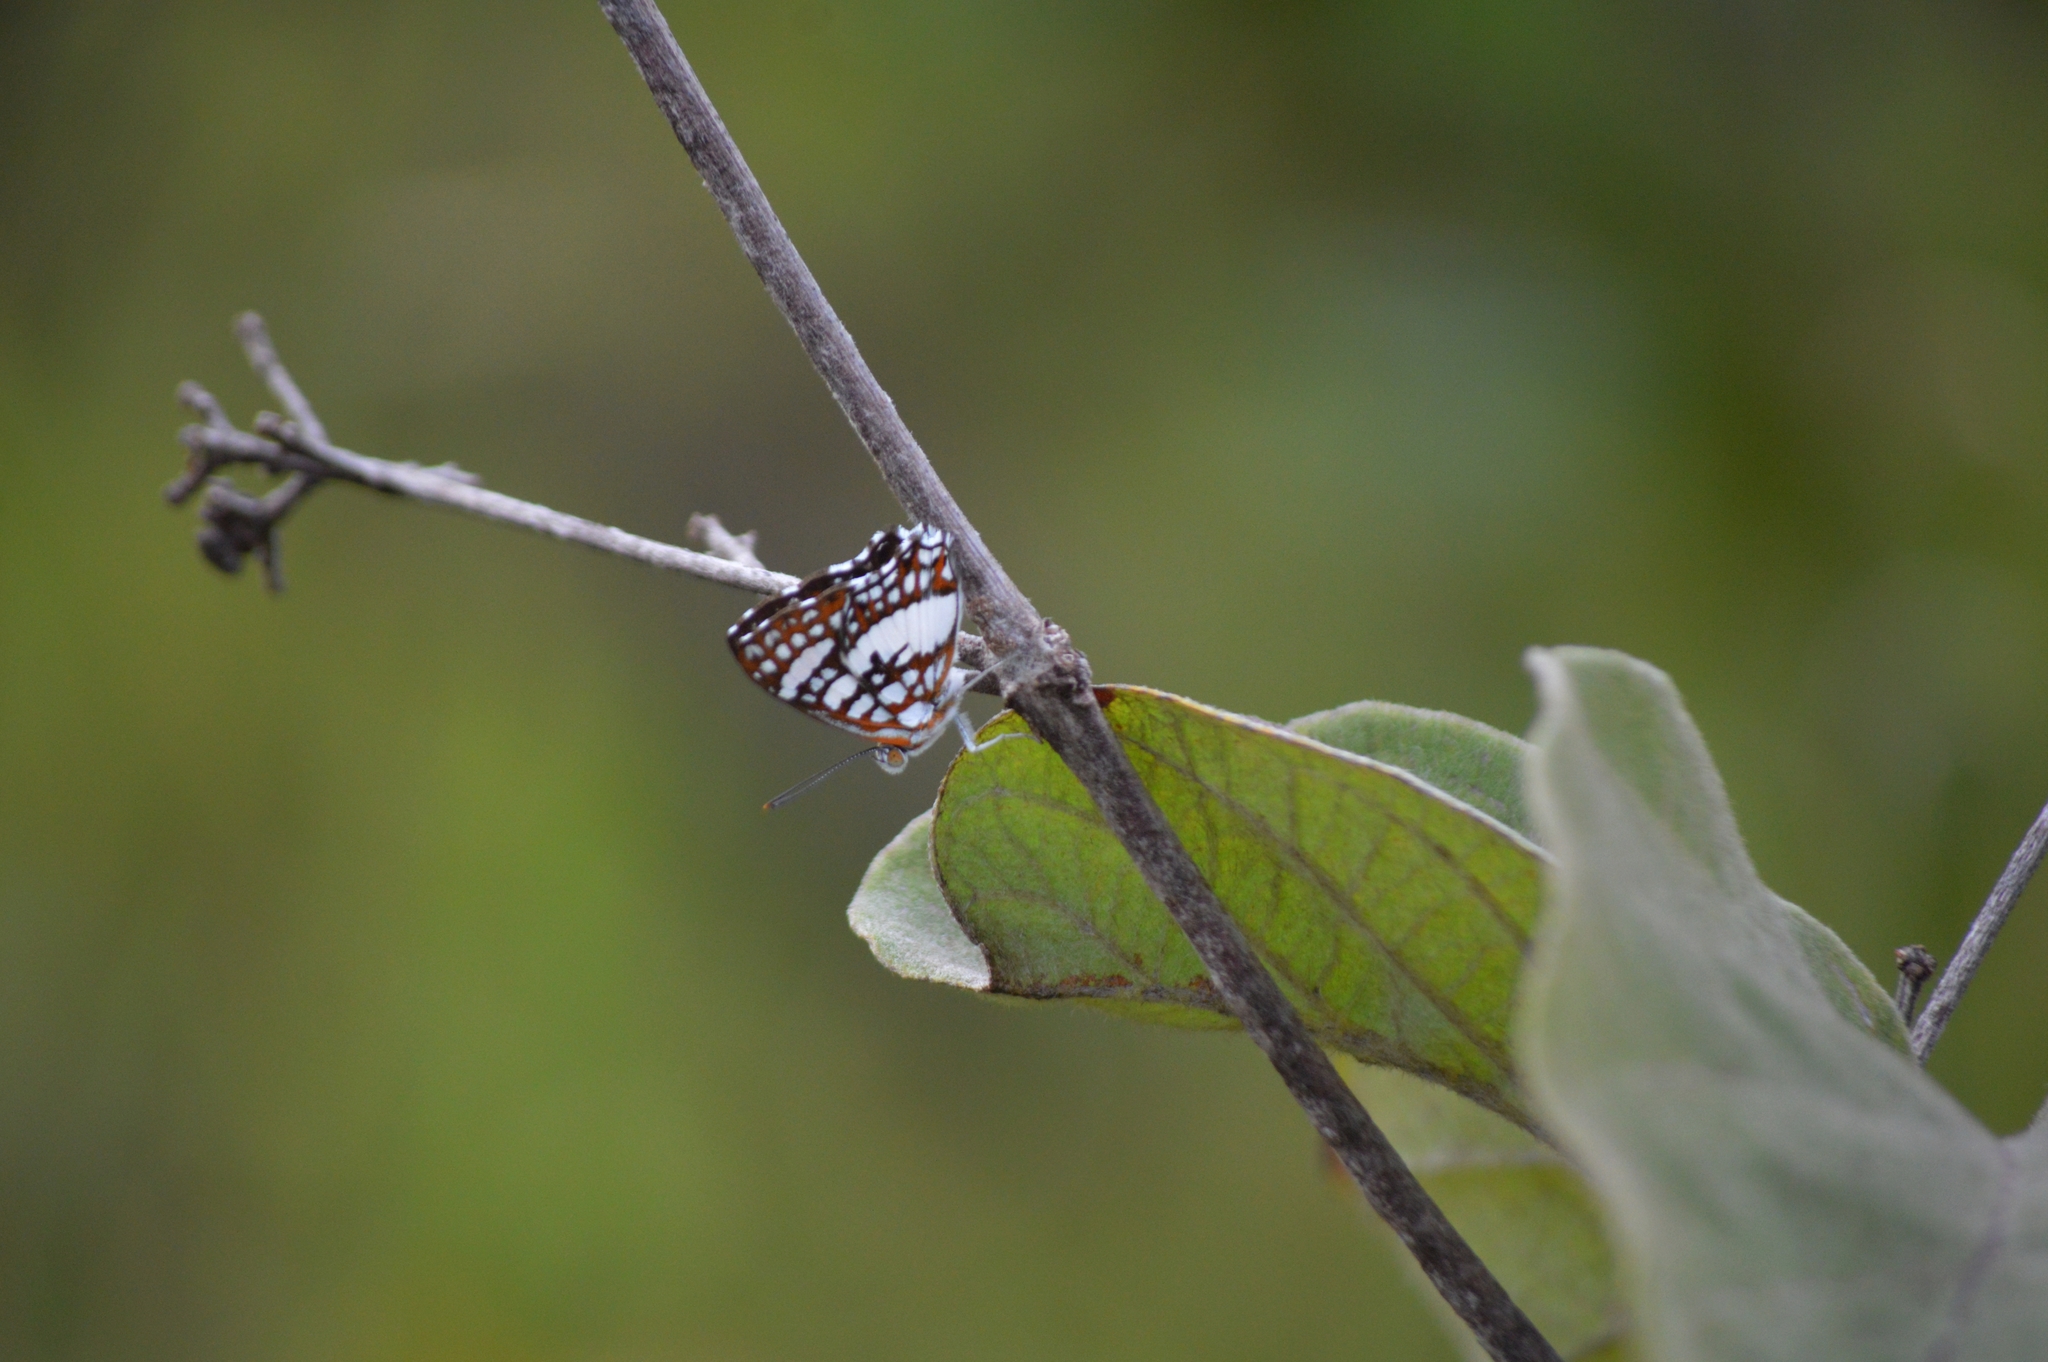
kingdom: Animalia
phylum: Arthropoda
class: Insecta
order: Lepidoptera
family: Riodinidae
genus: Ariconias
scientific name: Ariconias glaphyra
